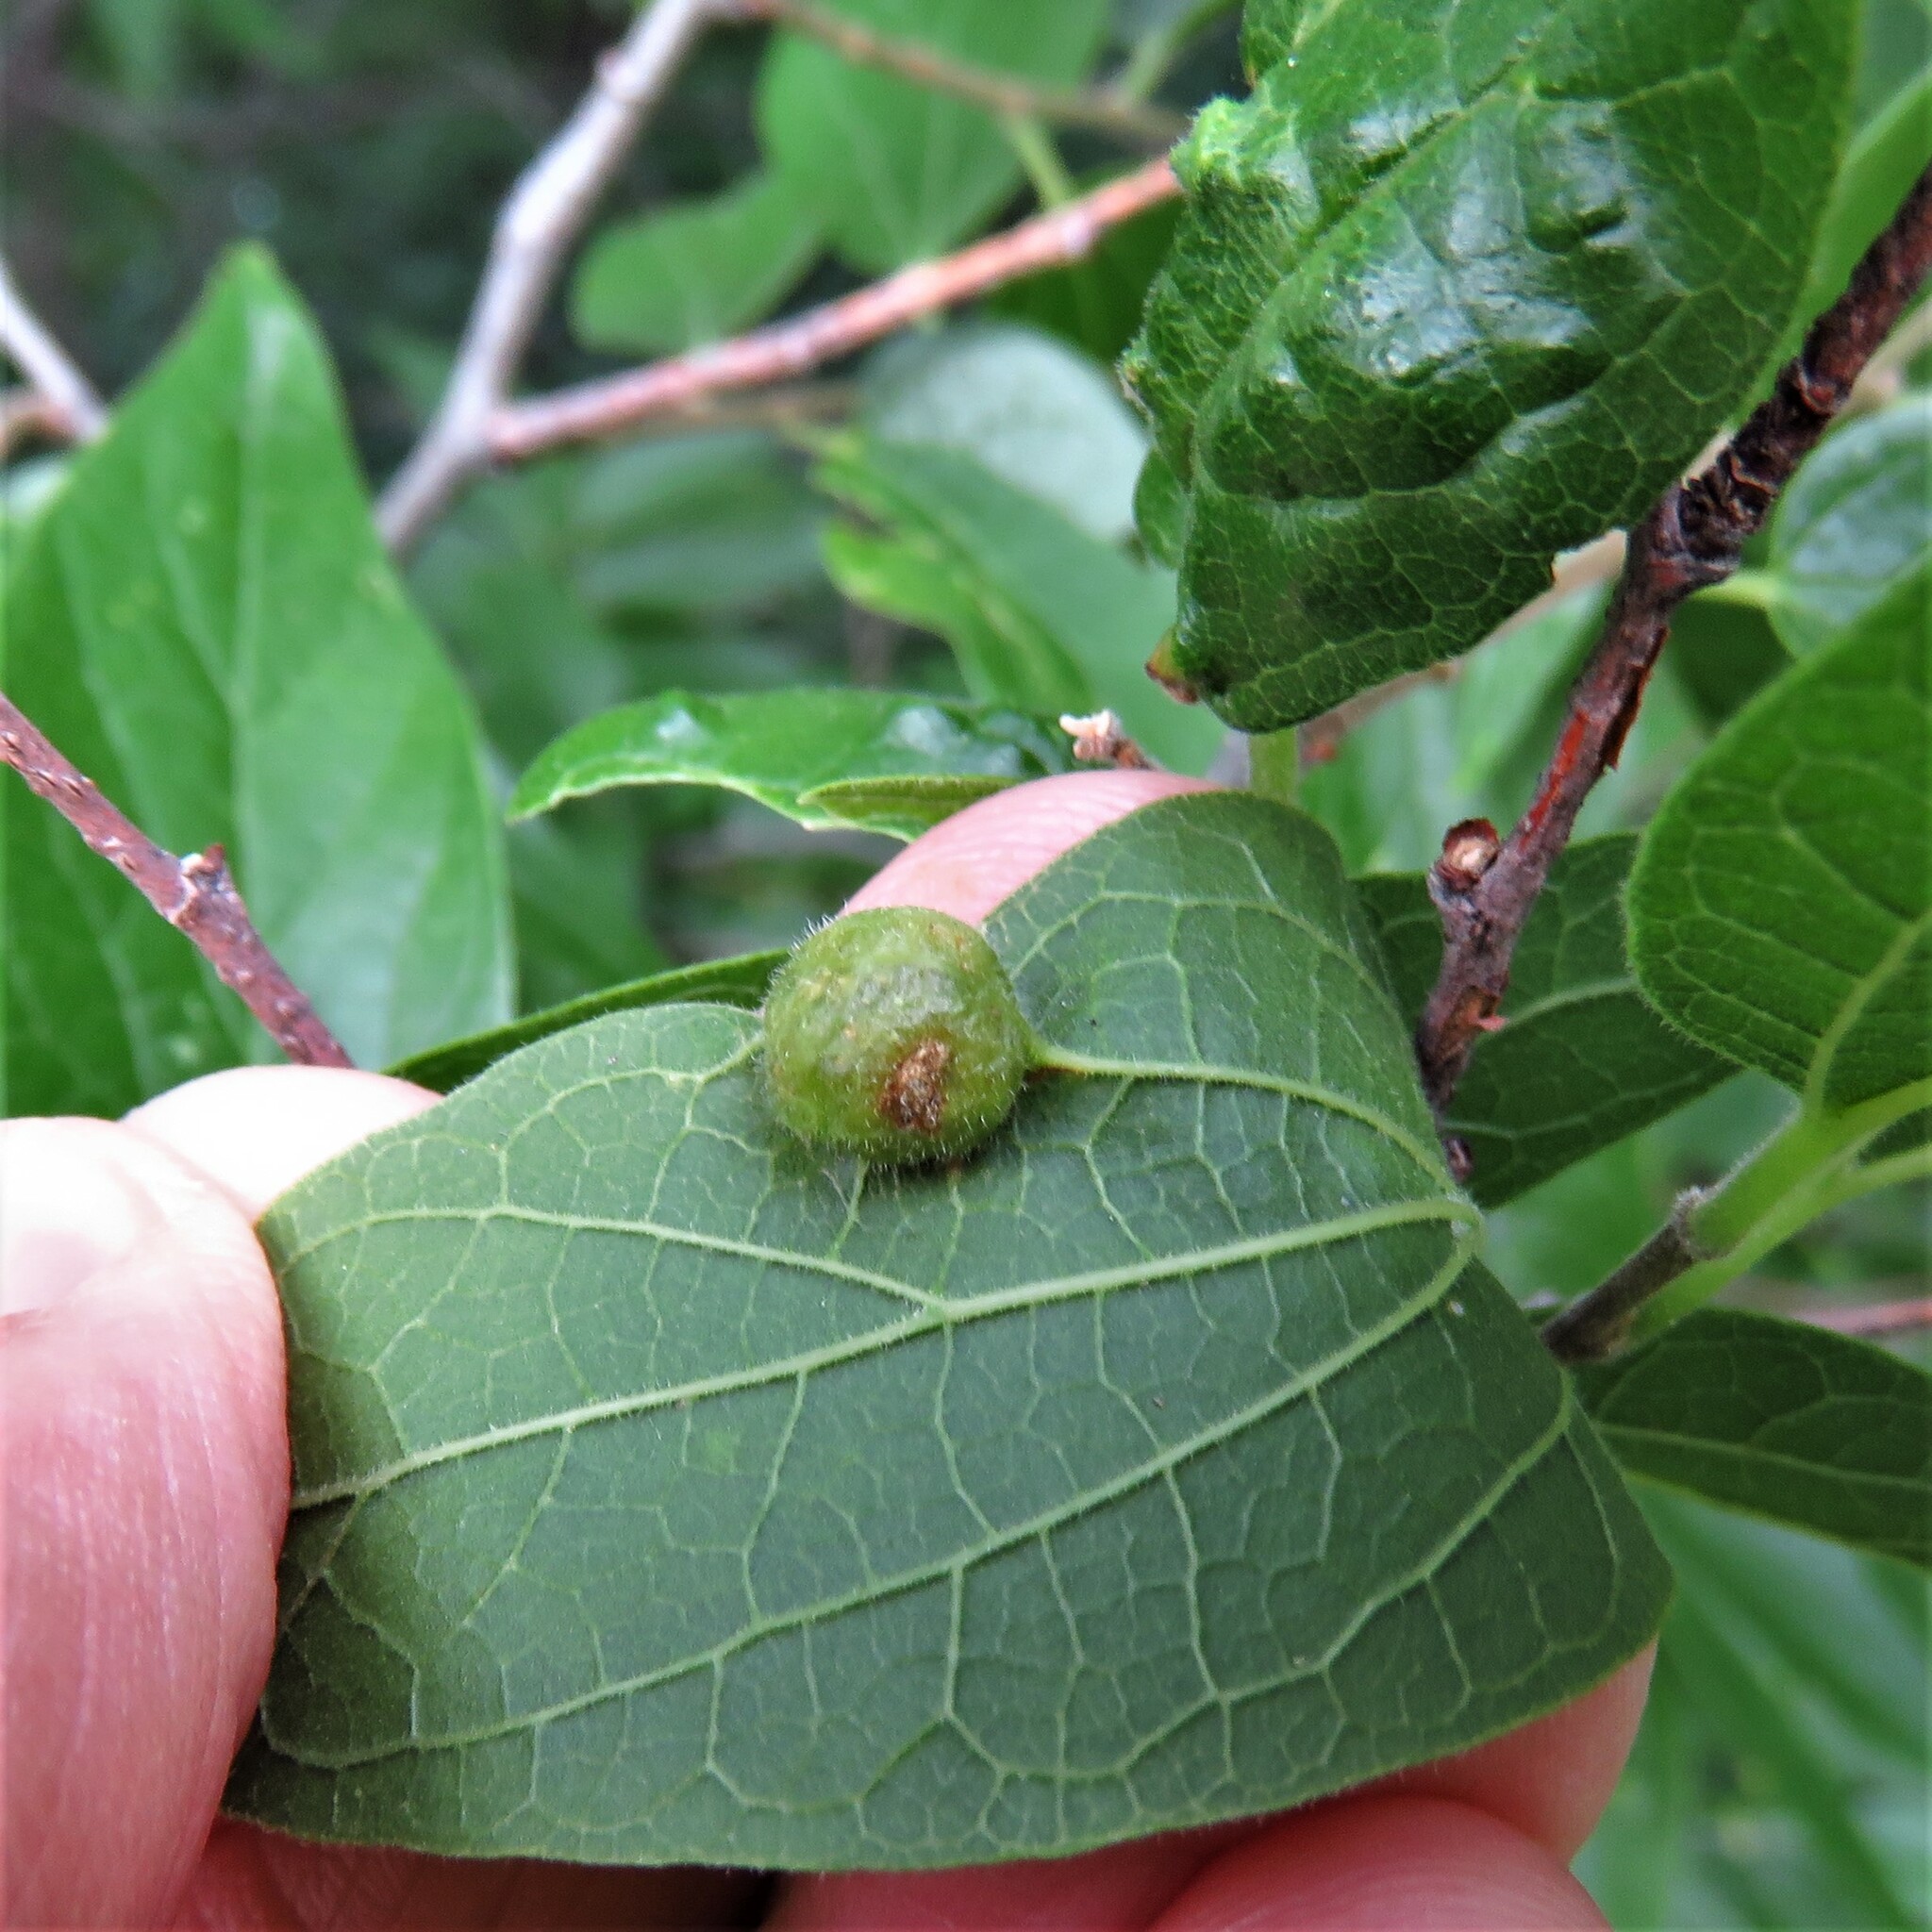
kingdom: Animalia
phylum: Arthropoda
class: Insecta
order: Diptera
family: Cecidomyiidae
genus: Peracecis
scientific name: Peracecis fugitiva
